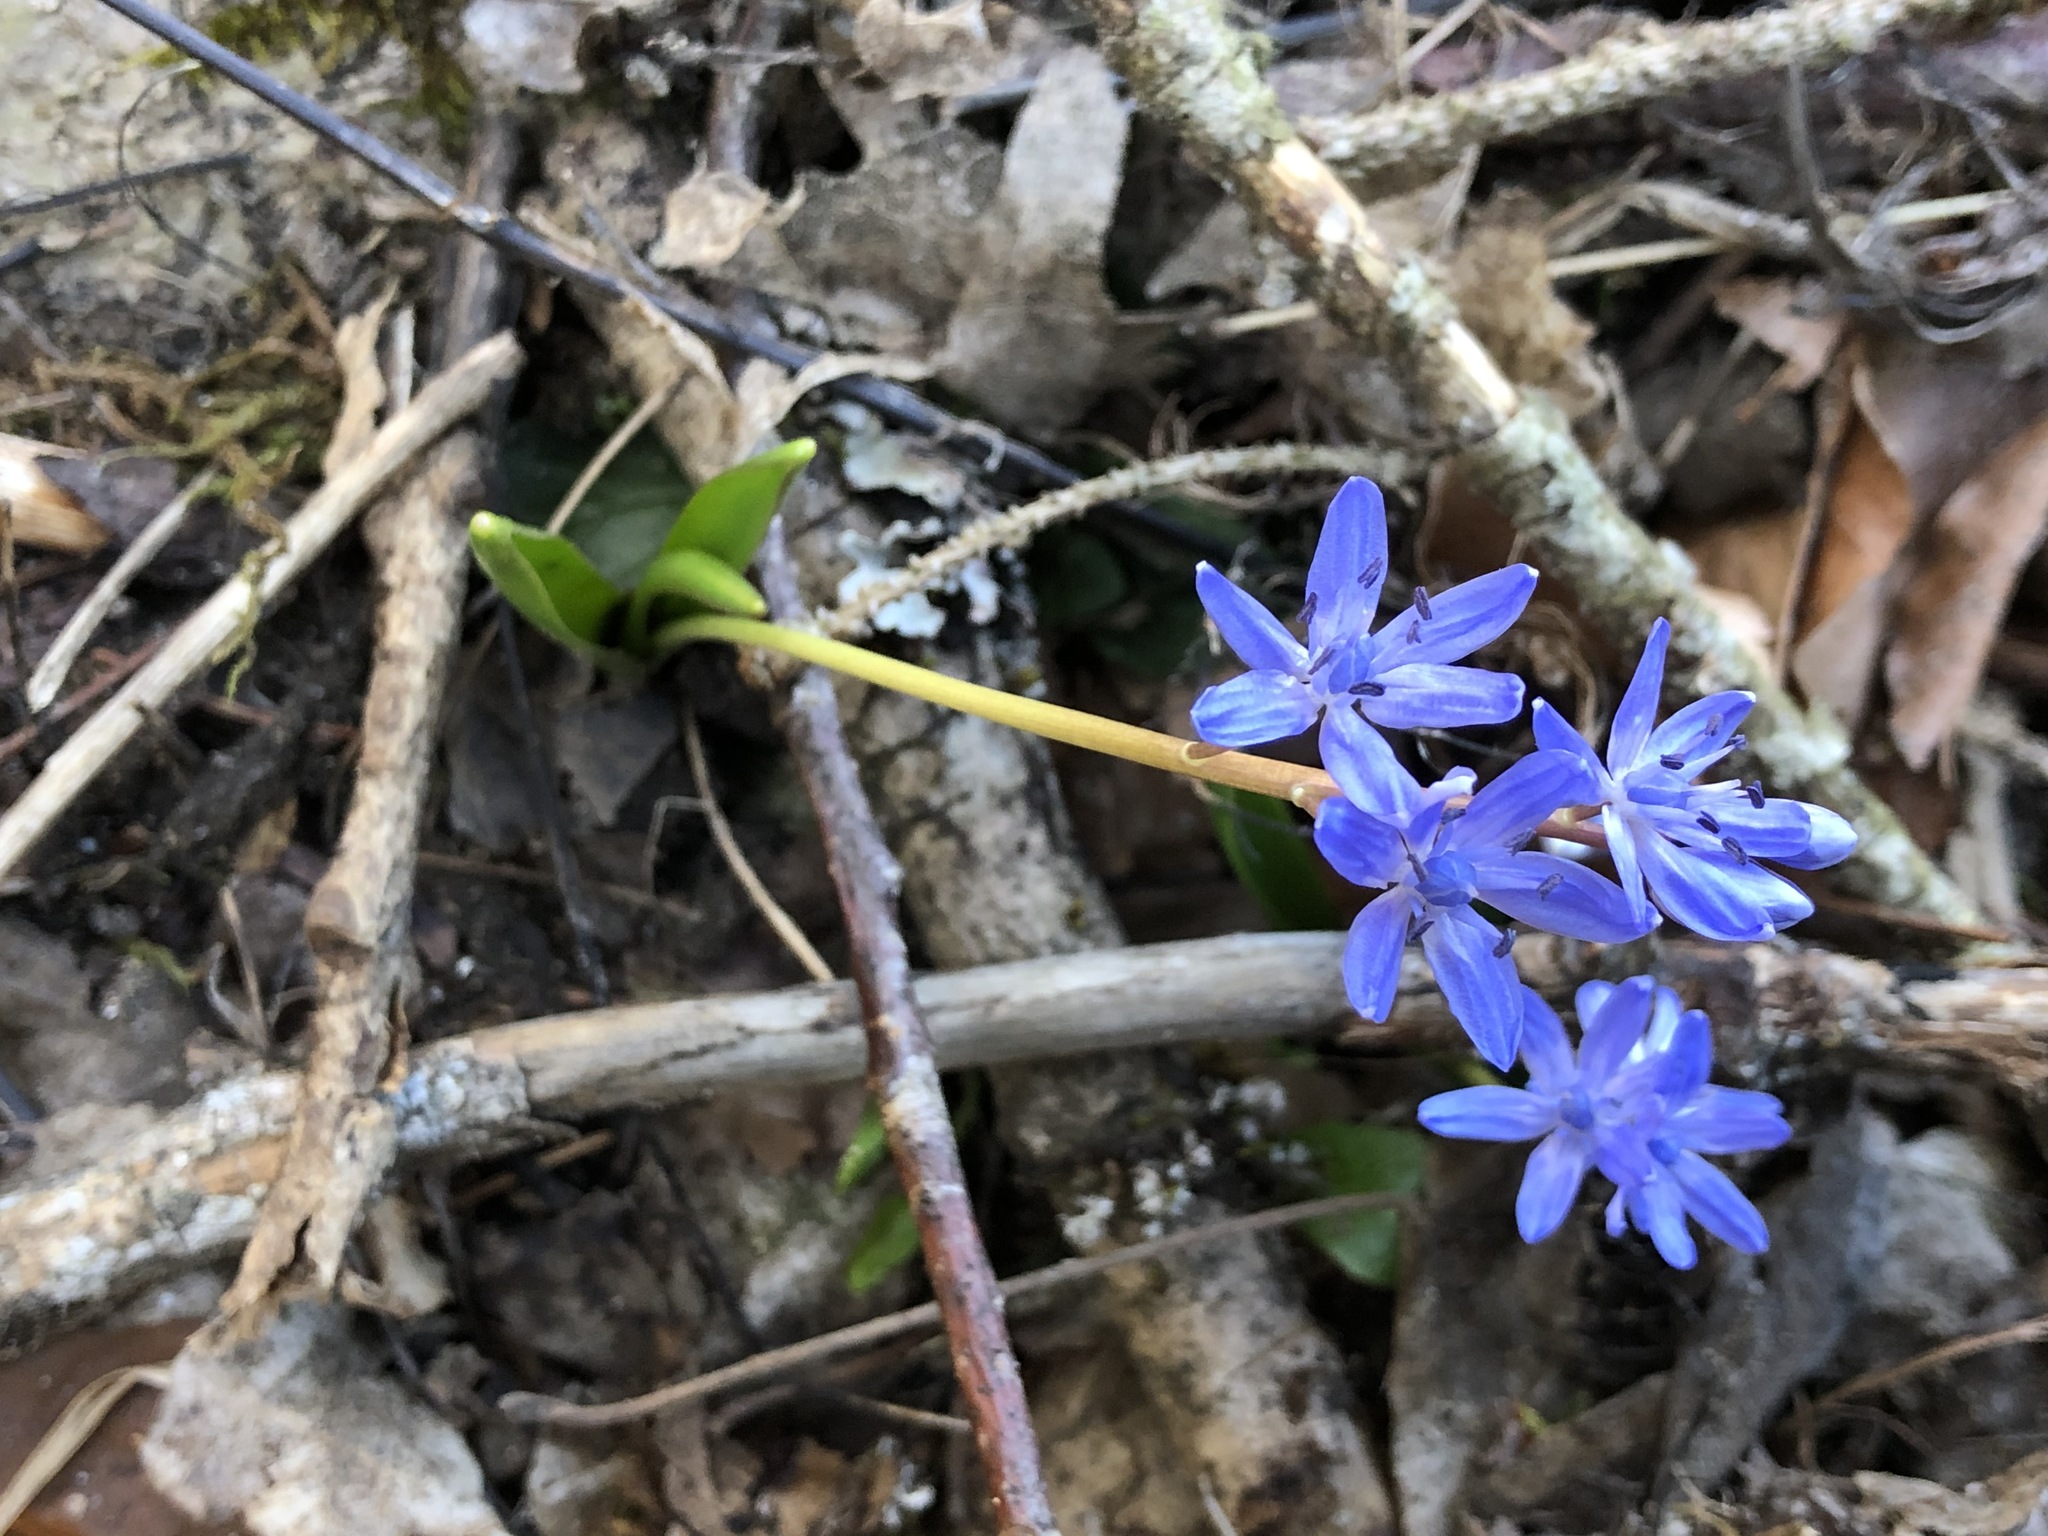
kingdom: Plantae
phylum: Tracheophyta
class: Liliopsida
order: Asparagales
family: Asparagaceae
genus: Scilla
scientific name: Scilla bifolia
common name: Alpine squill
